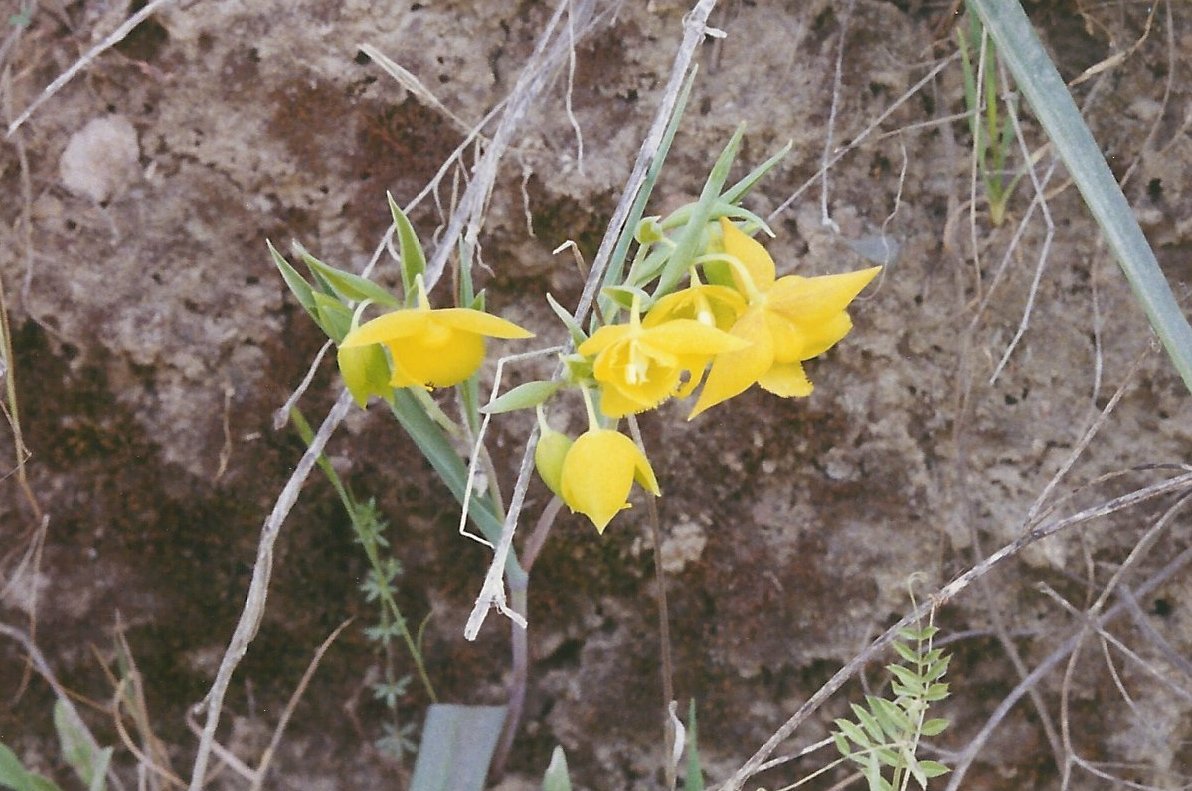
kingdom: Plantae
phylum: Tracheophyta
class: Liliopsida
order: Liliales
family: Liliaceae
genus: Calochortus
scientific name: Calochortus amabilis
